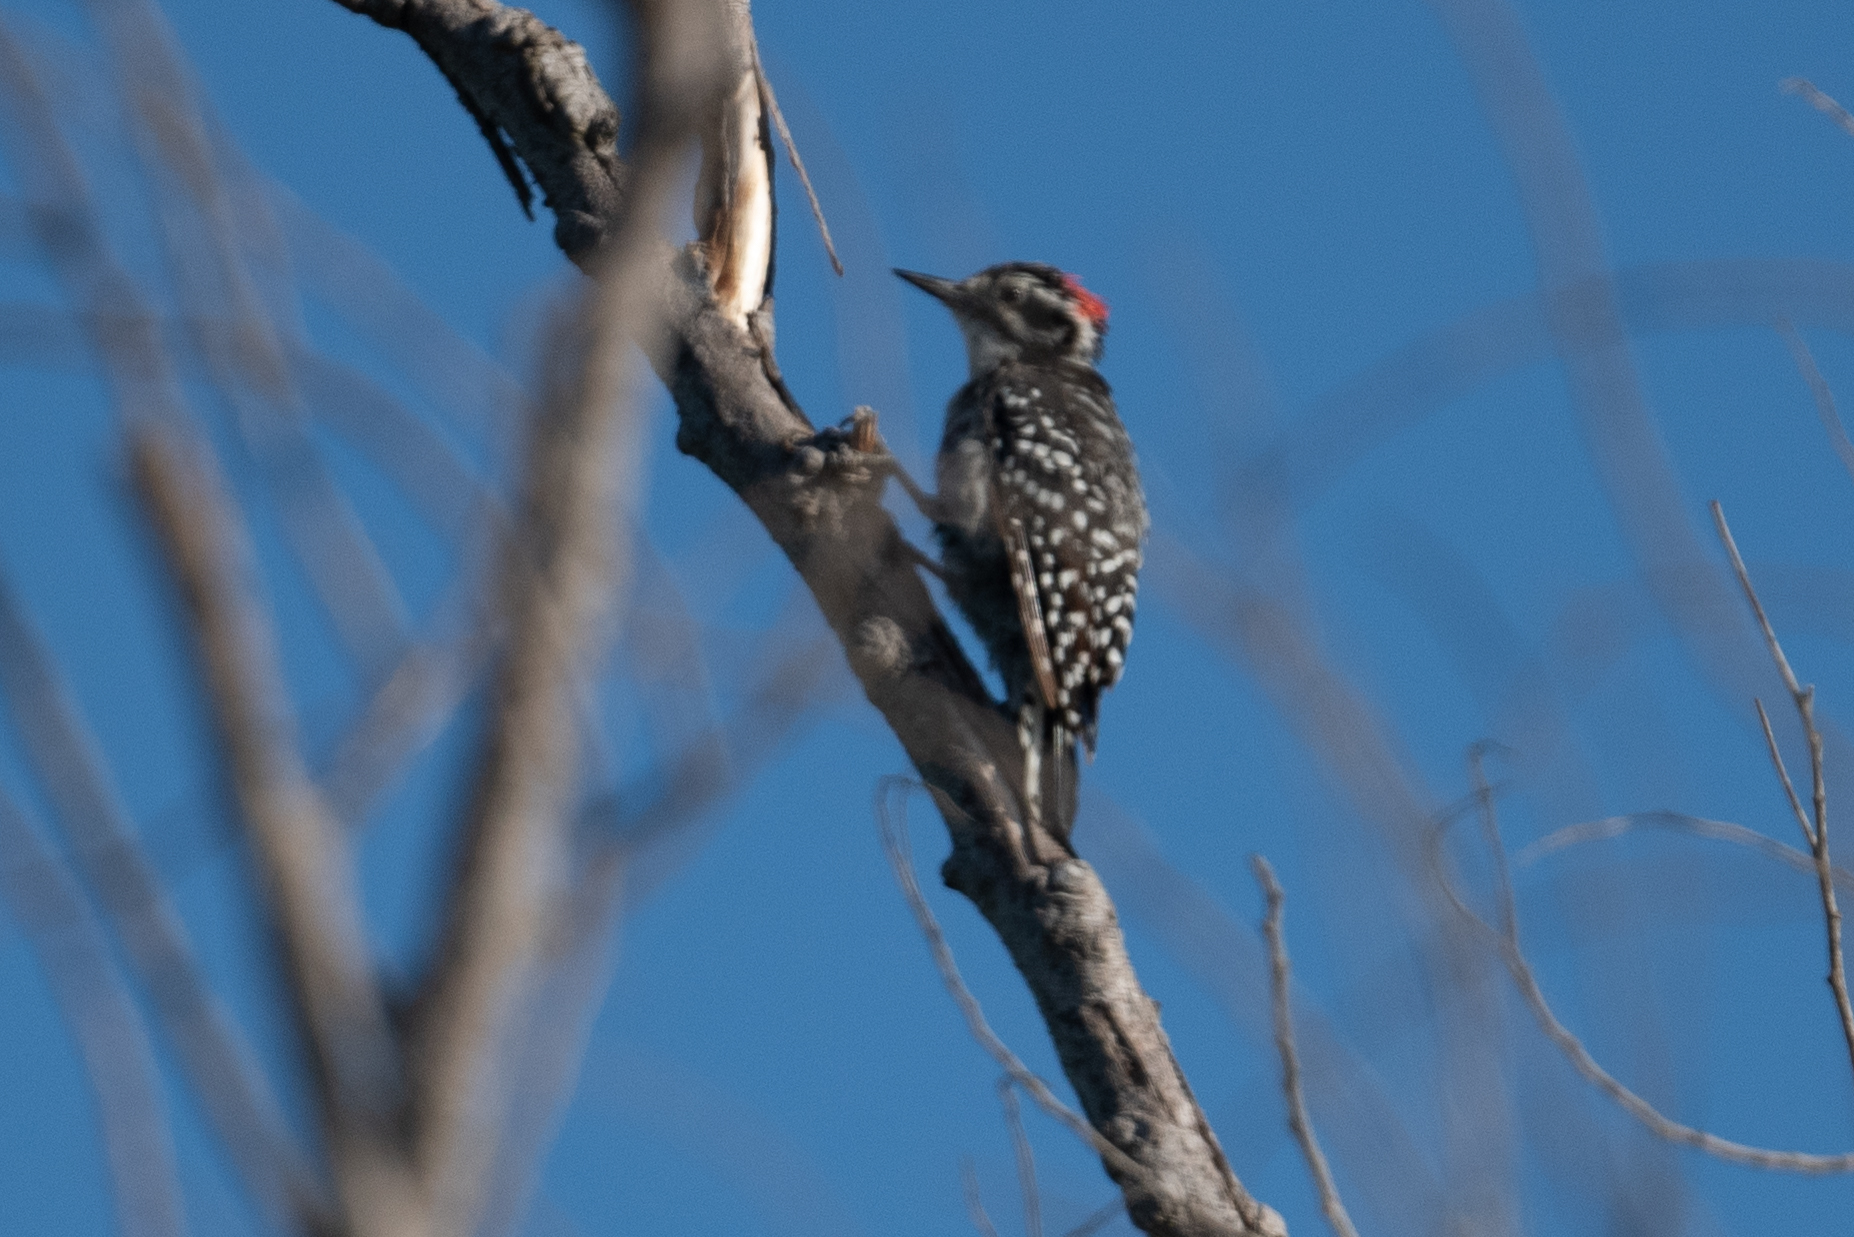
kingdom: Animalia
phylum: Chordata
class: Aves
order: Piciformes
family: Picidae
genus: Dryobates
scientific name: Dryobates nuttallii
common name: Nuttall's woodpecker
